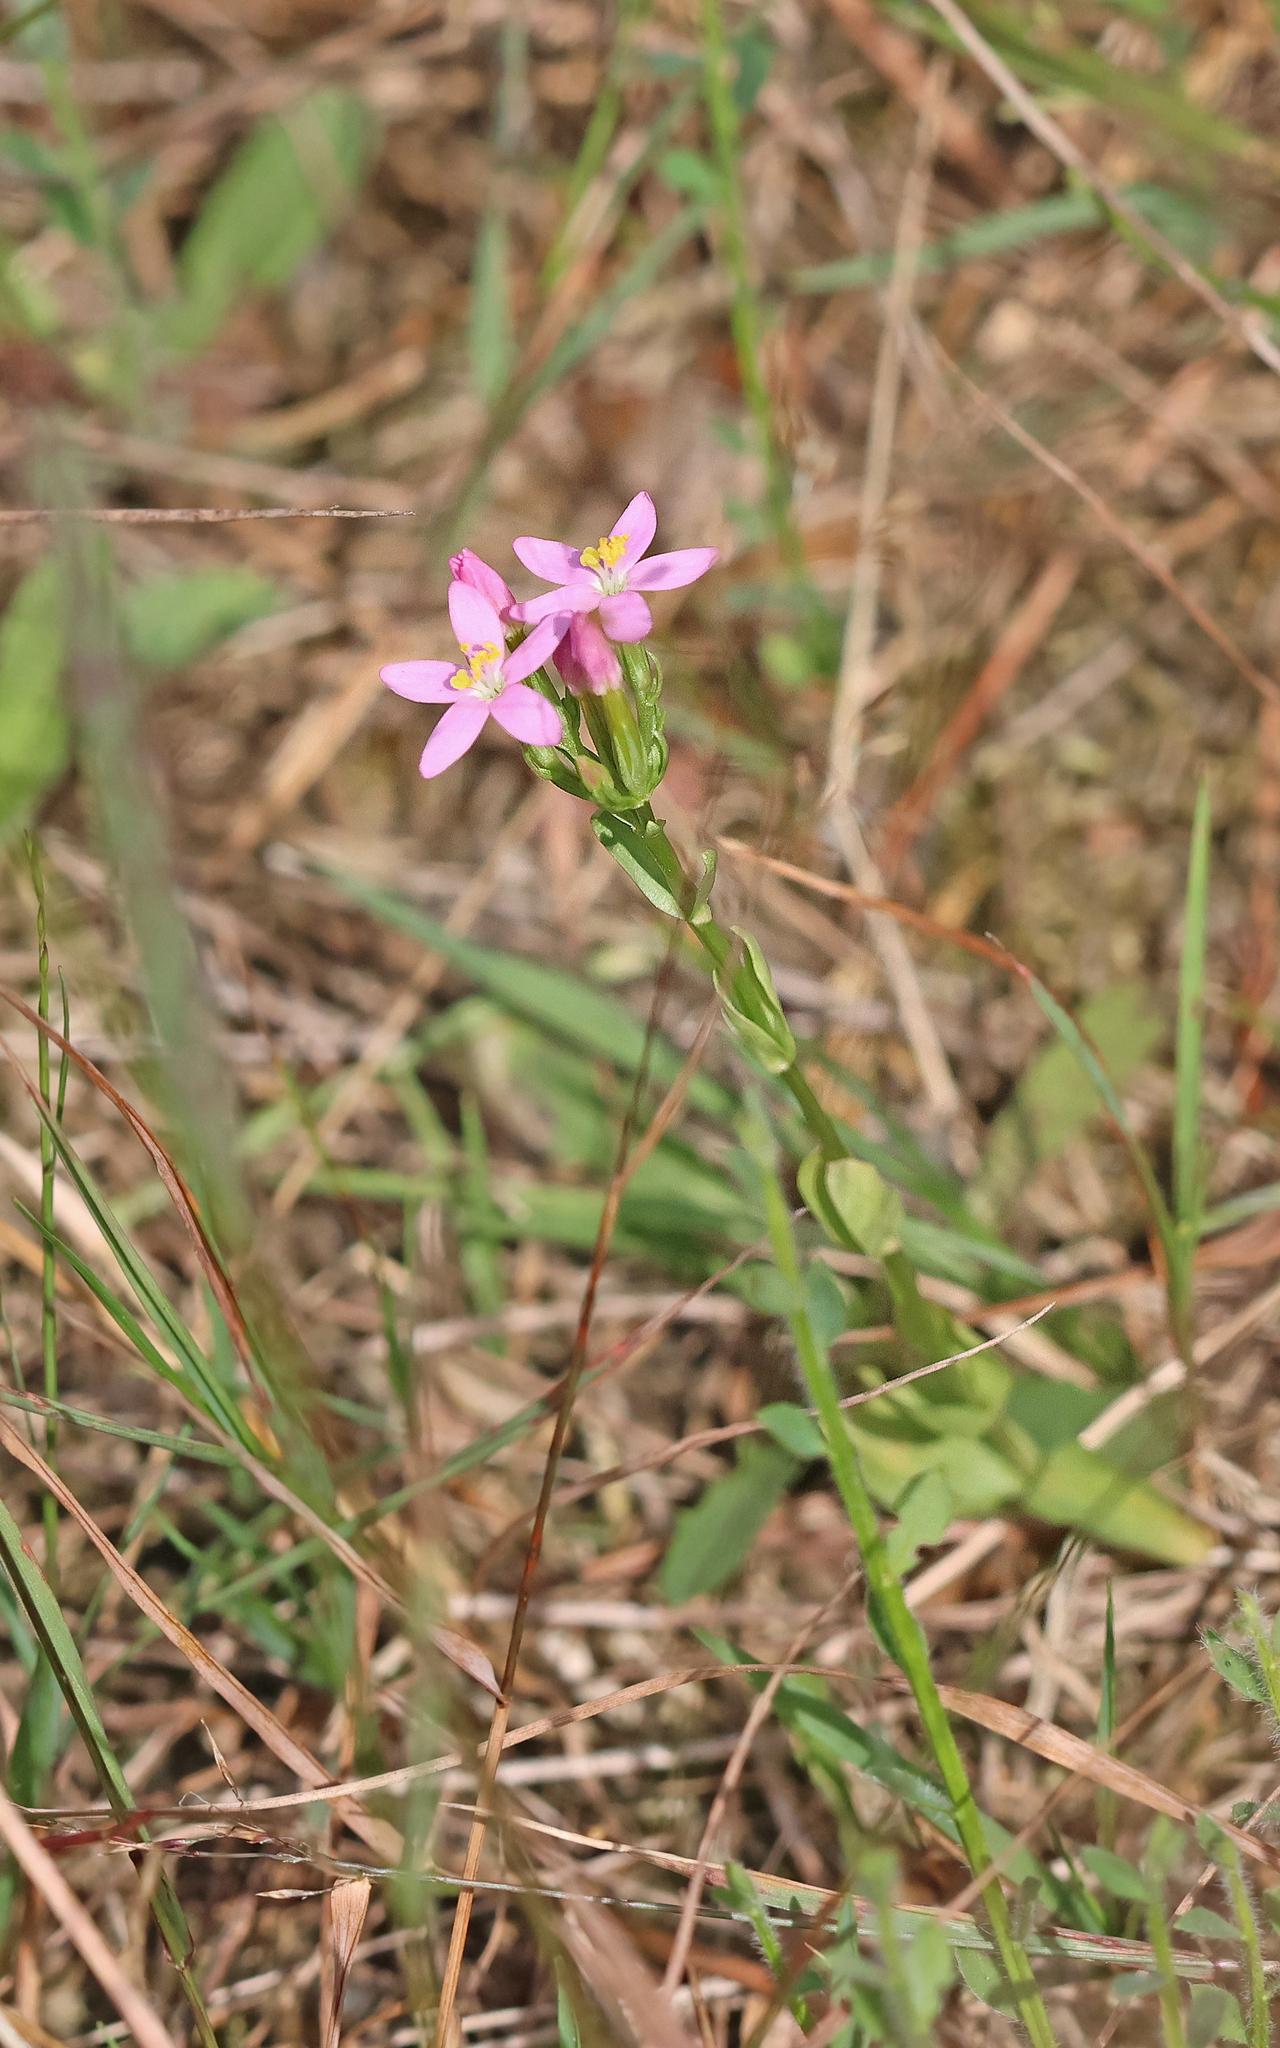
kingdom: Plantae
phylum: Tracheophyta
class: Magnoliopsida
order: Gentianales
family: Gentianaceae
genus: Centaurium
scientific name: Centaurium erythraea
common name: Common centaury
